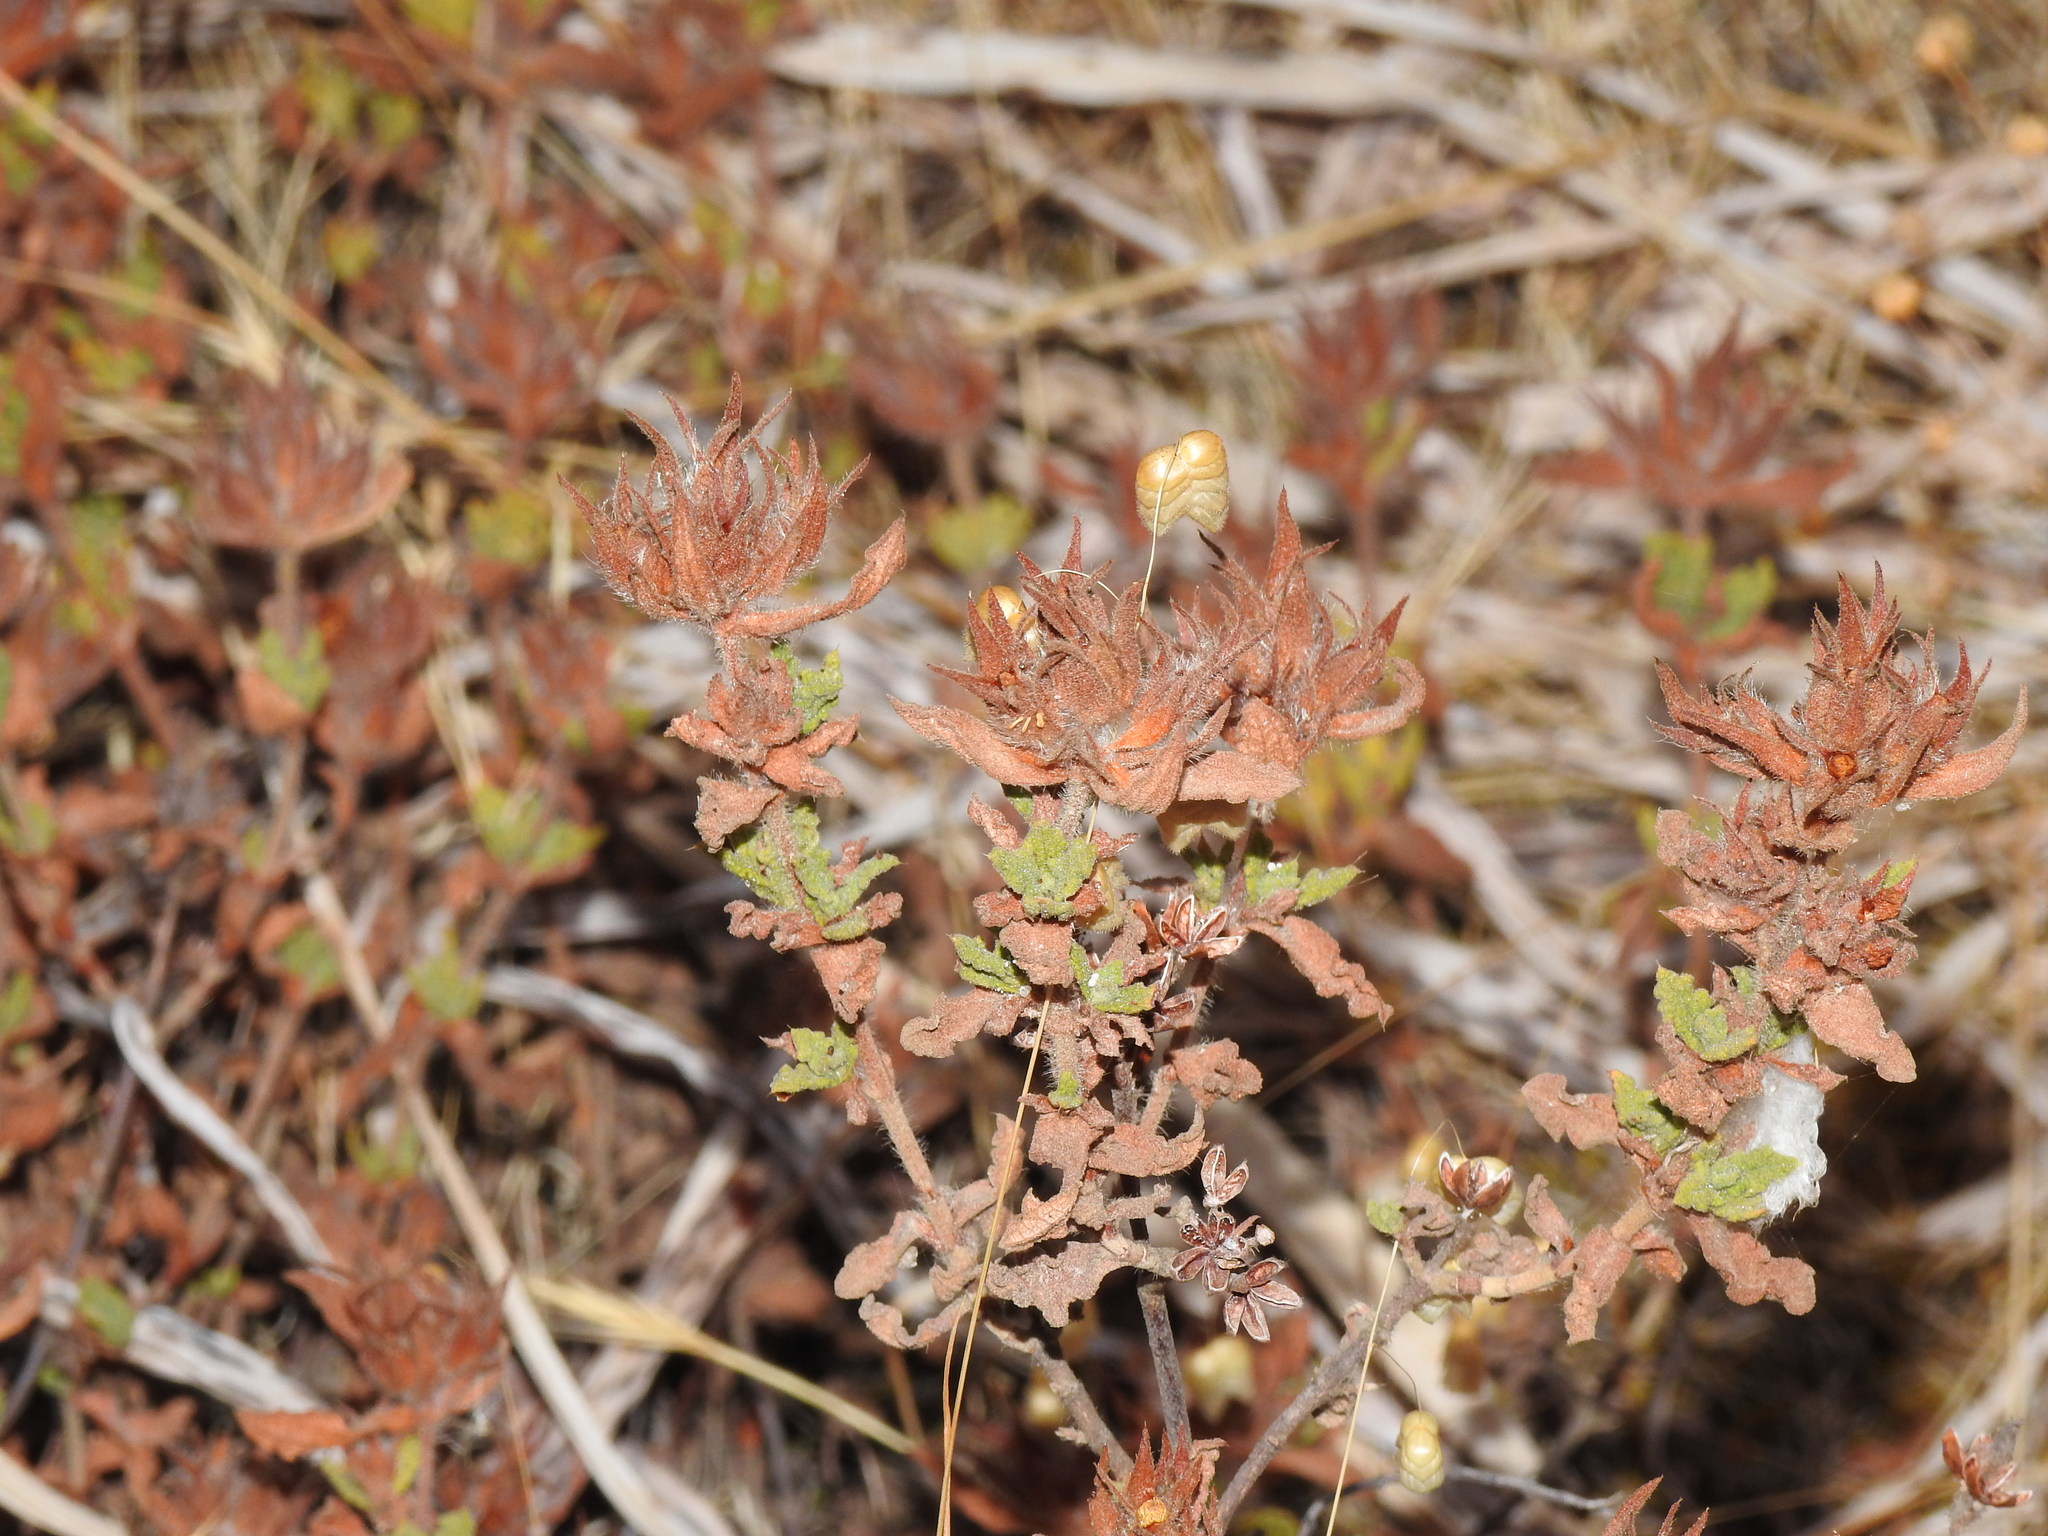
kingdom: Plantae
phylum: Tracheophyta
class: Magnoliopsida
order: Malvales
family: Cistaceae
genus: Cistus
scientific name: Cistus crispus
